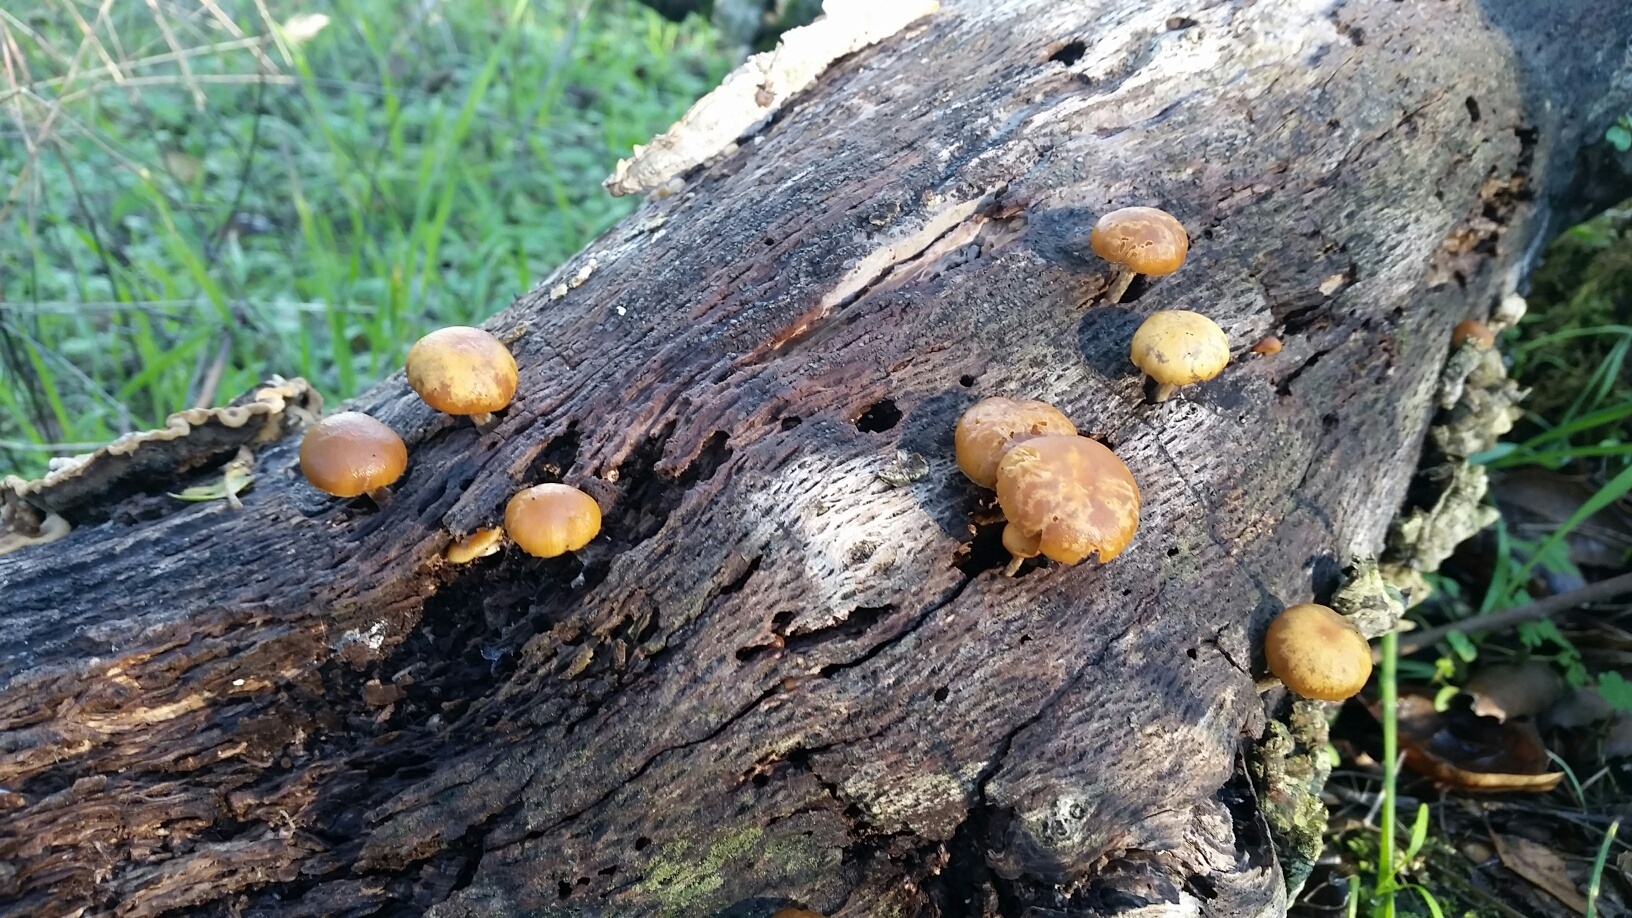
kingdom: Fungi
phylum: Basidiomycota
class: Agaricomycetes
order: Agaricales
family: Hymenogastraceae
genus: Galerina
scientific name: Galerina marginata
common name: Funeral bell
